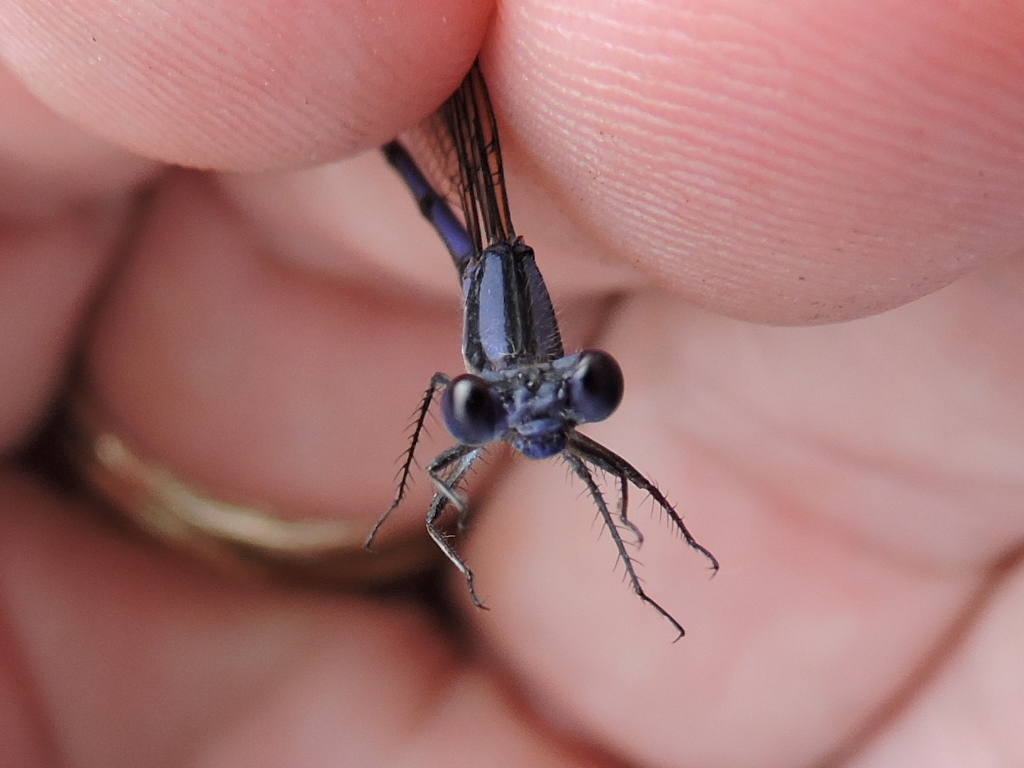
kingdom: Animalia
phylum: Arthropoda
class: Insecta
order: Odonata
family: Coenagrionidae
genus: Argia
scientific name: Argia fumipennis
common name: Variable dancer
